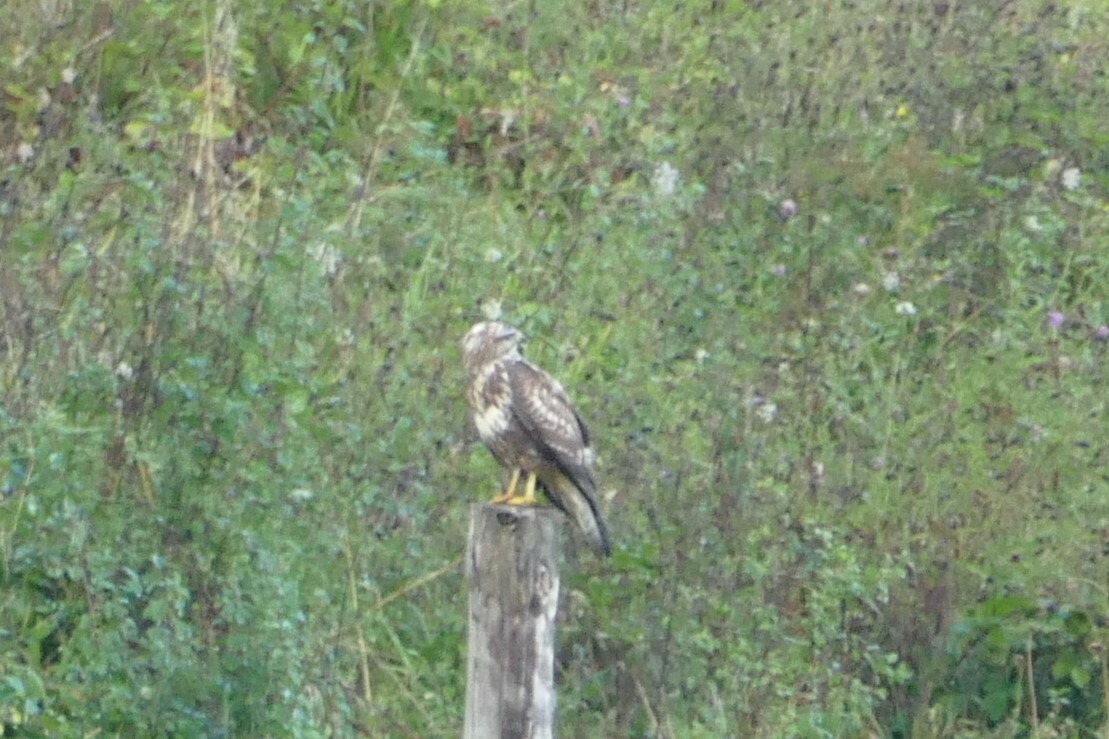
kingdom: Animalia
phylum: Chordata
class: Aves
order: Accipitriformes
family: Accipitridae
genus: Buteo
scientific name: Buteo buteo
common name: Common buzzard
